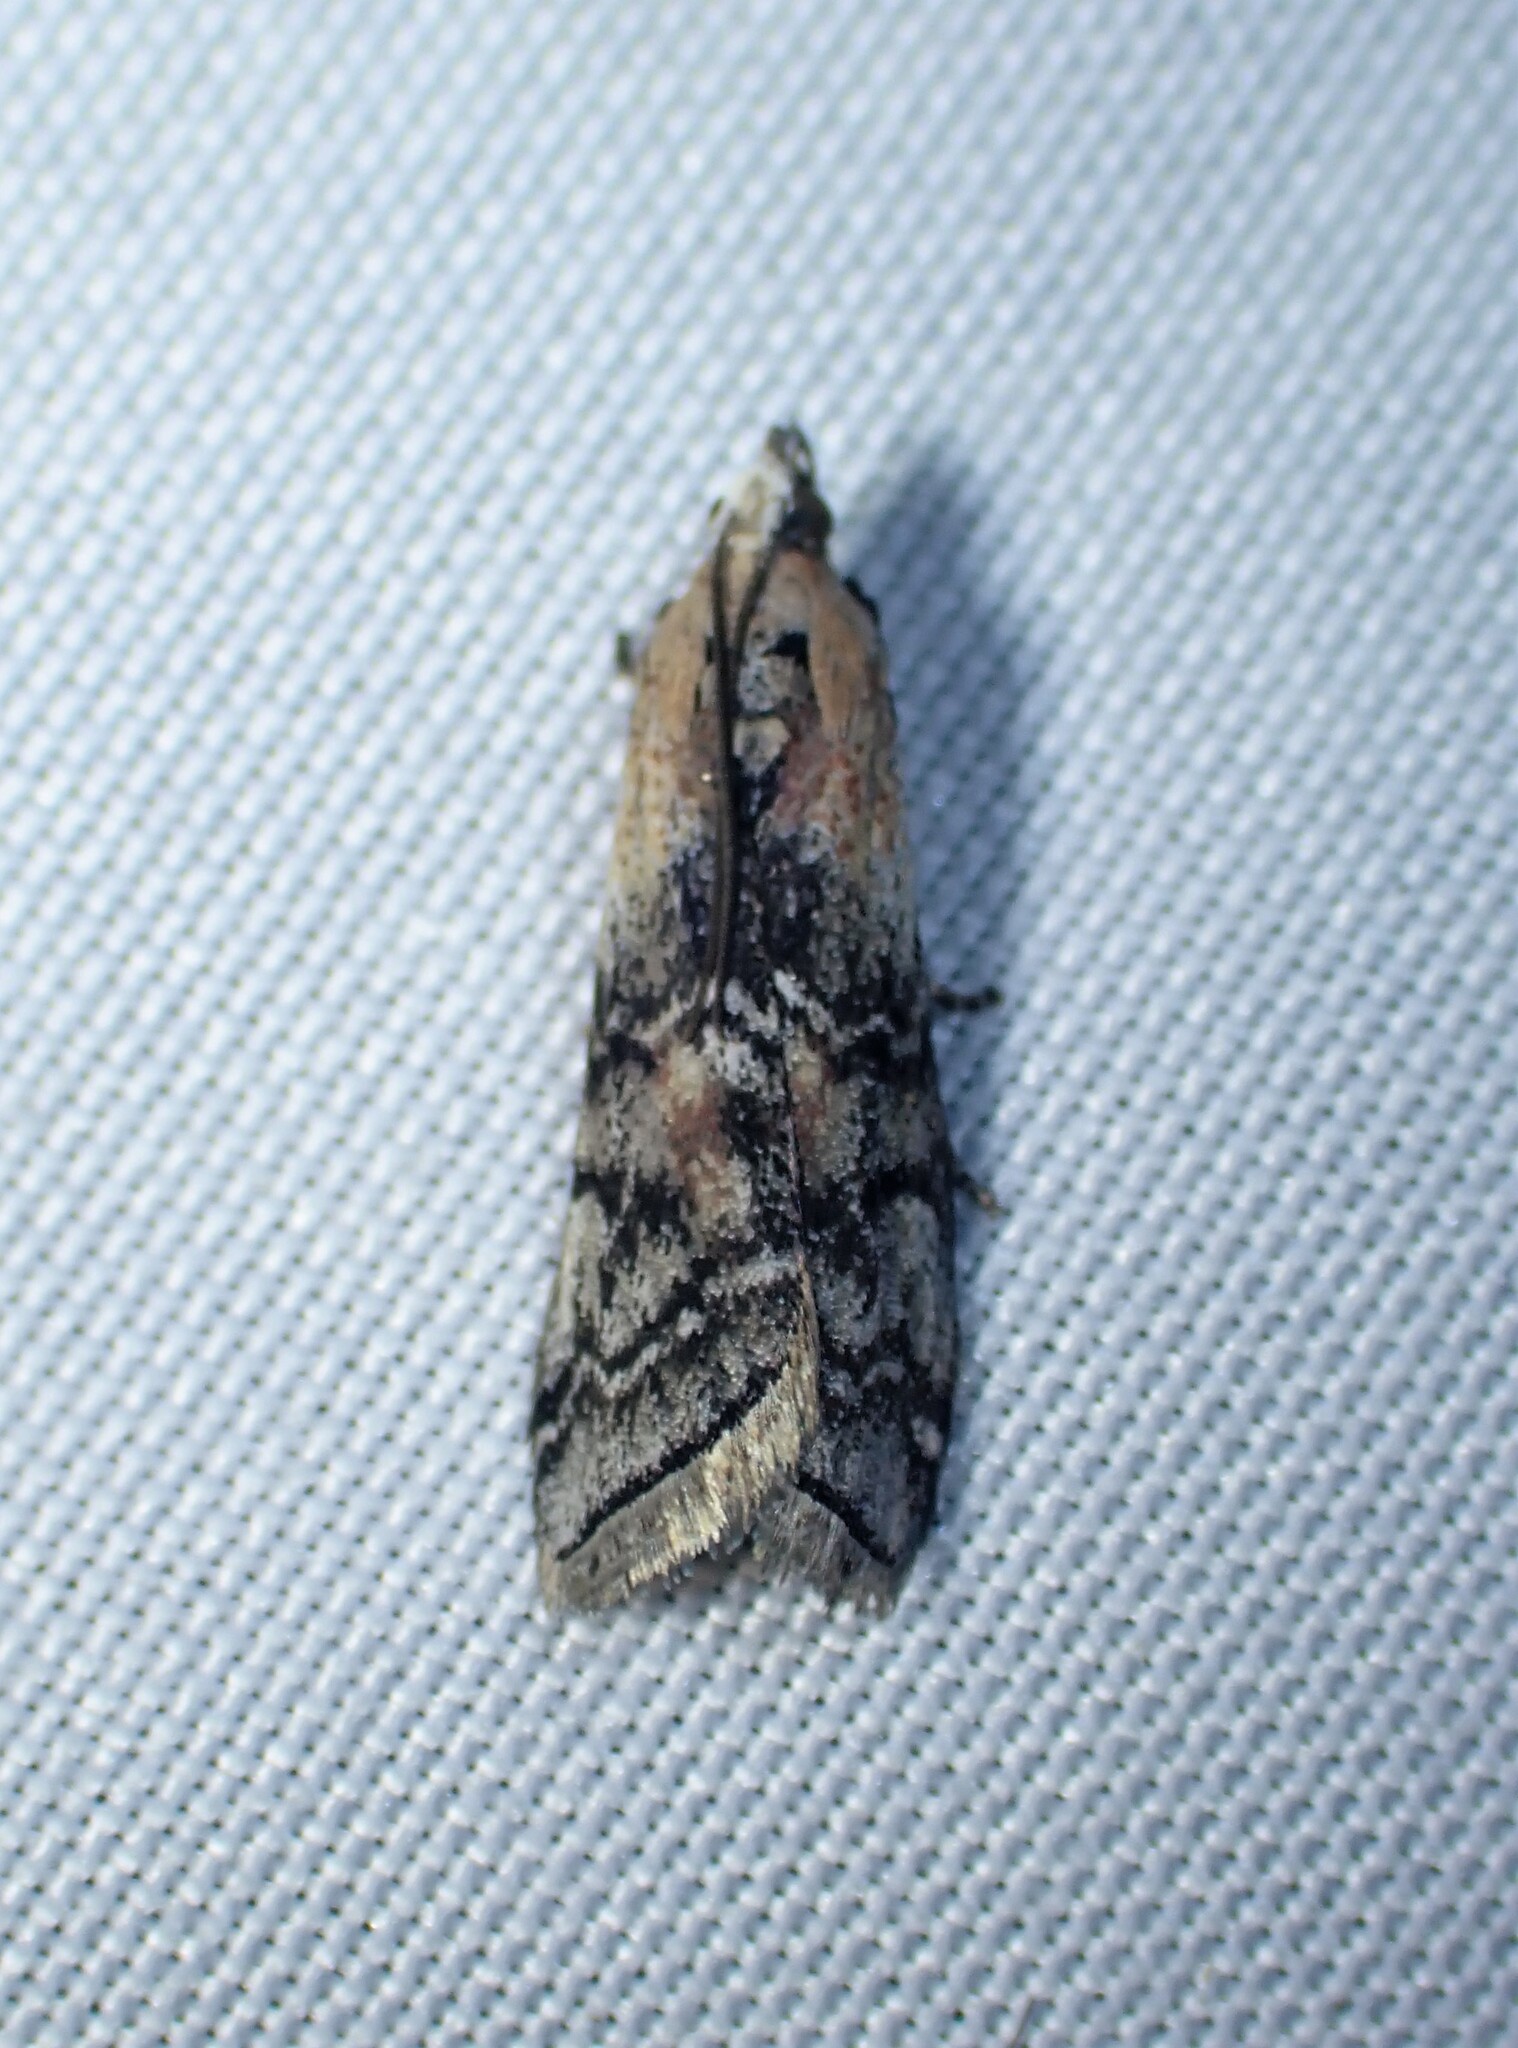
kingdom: Animalia
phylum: Arthropoda
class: Insecta
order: Lepidoptera
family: Pyralidae
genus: Glyptocera
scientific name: Glyptocera consobrinella
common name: Viburnum glyptocera moth
